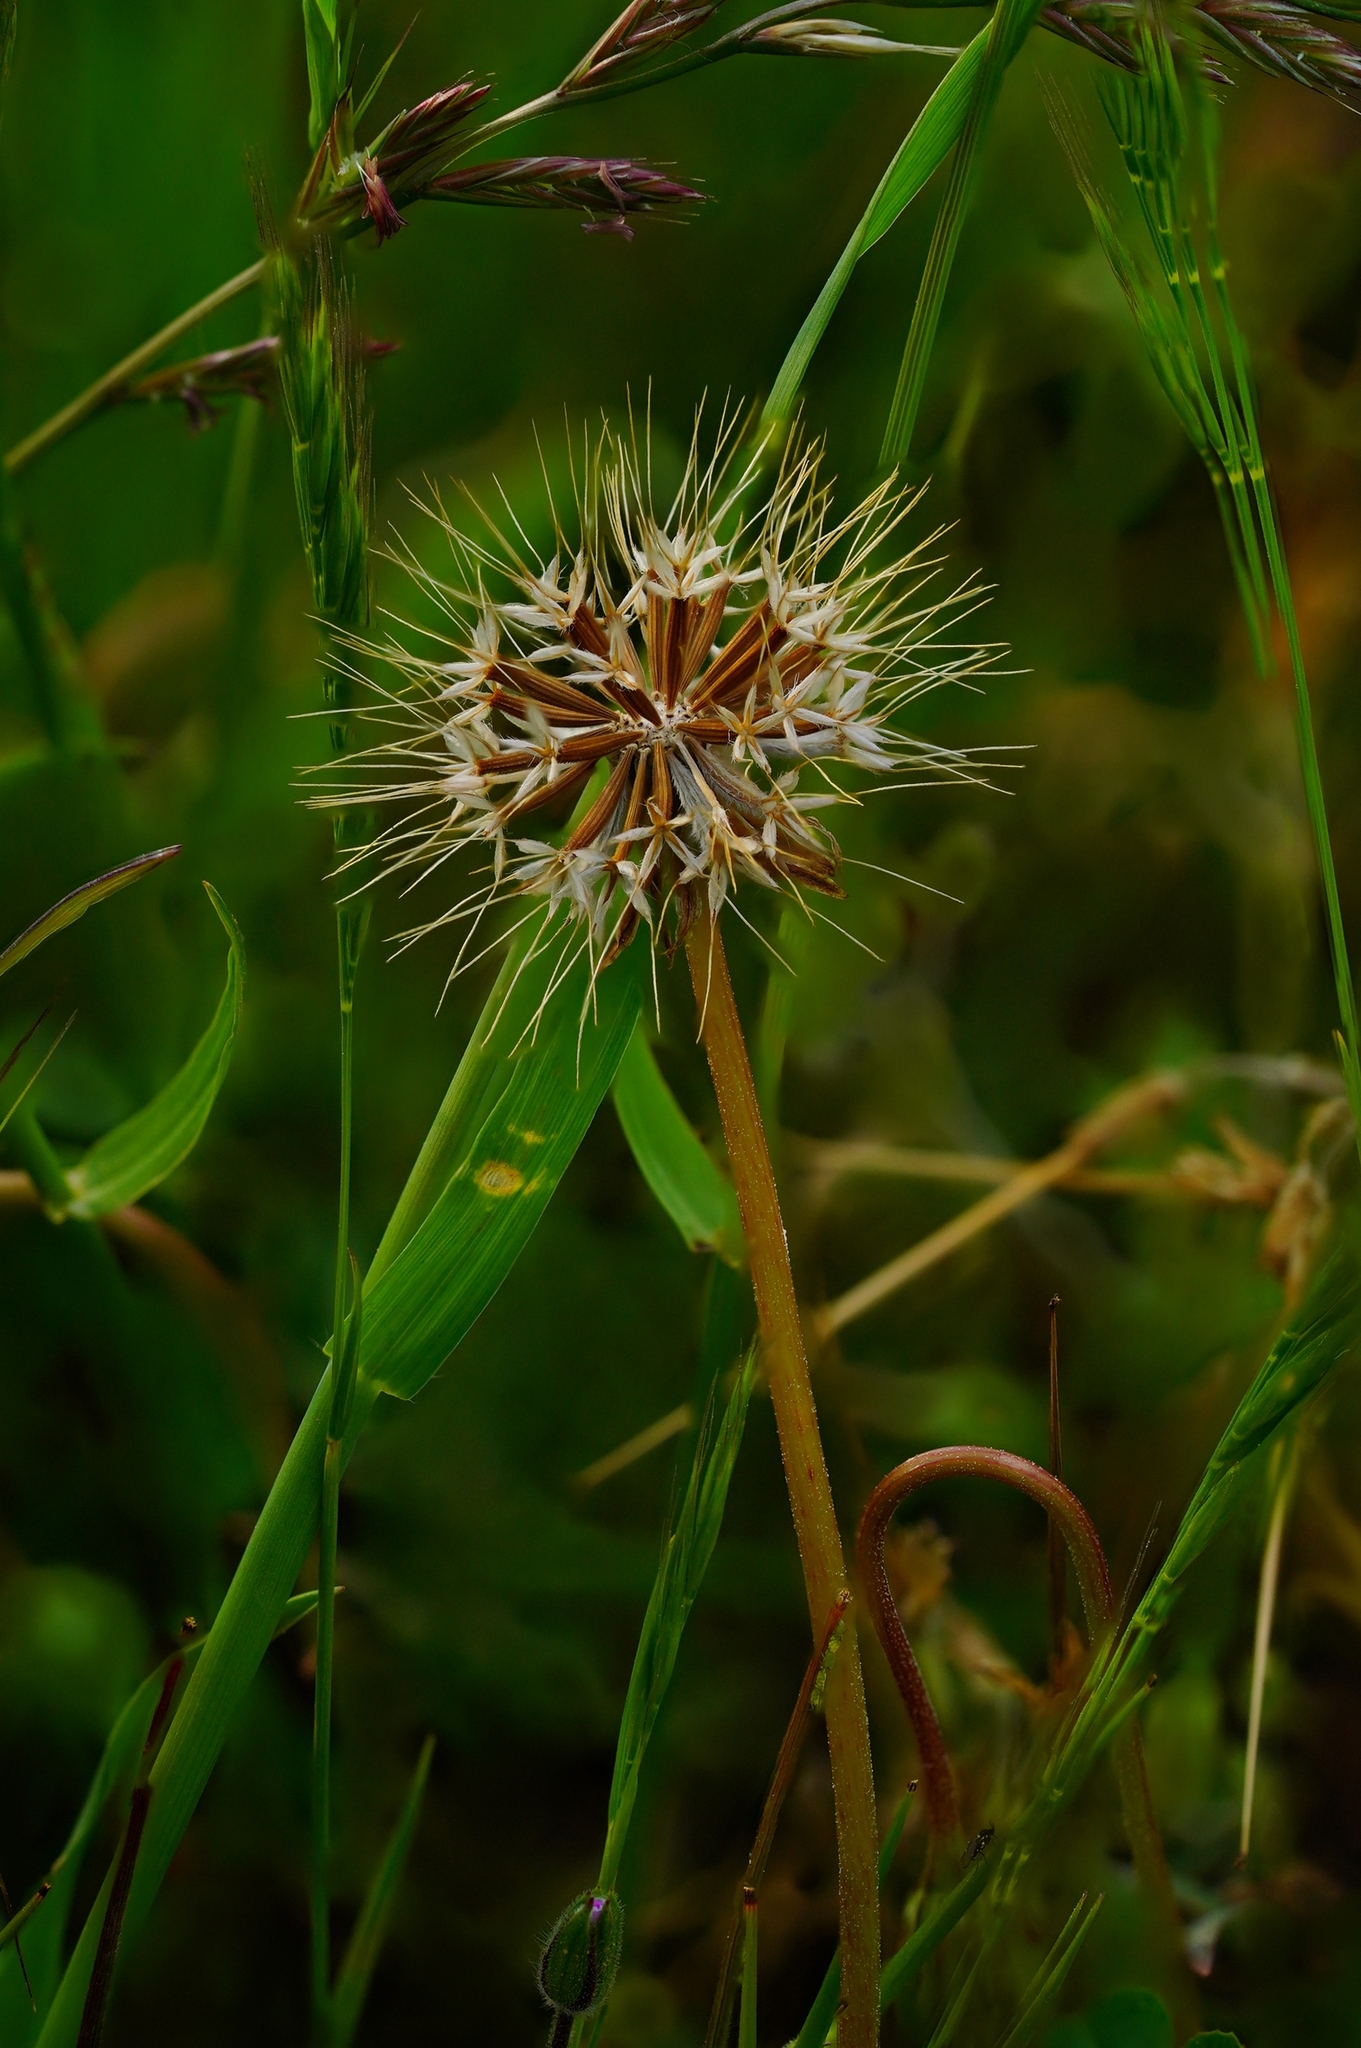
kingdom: Plantae
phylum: Tracheophyta
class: Magnoliopsida
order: Asterales
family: Asteraceae
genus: Microseris
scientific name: Microseris douglasii
